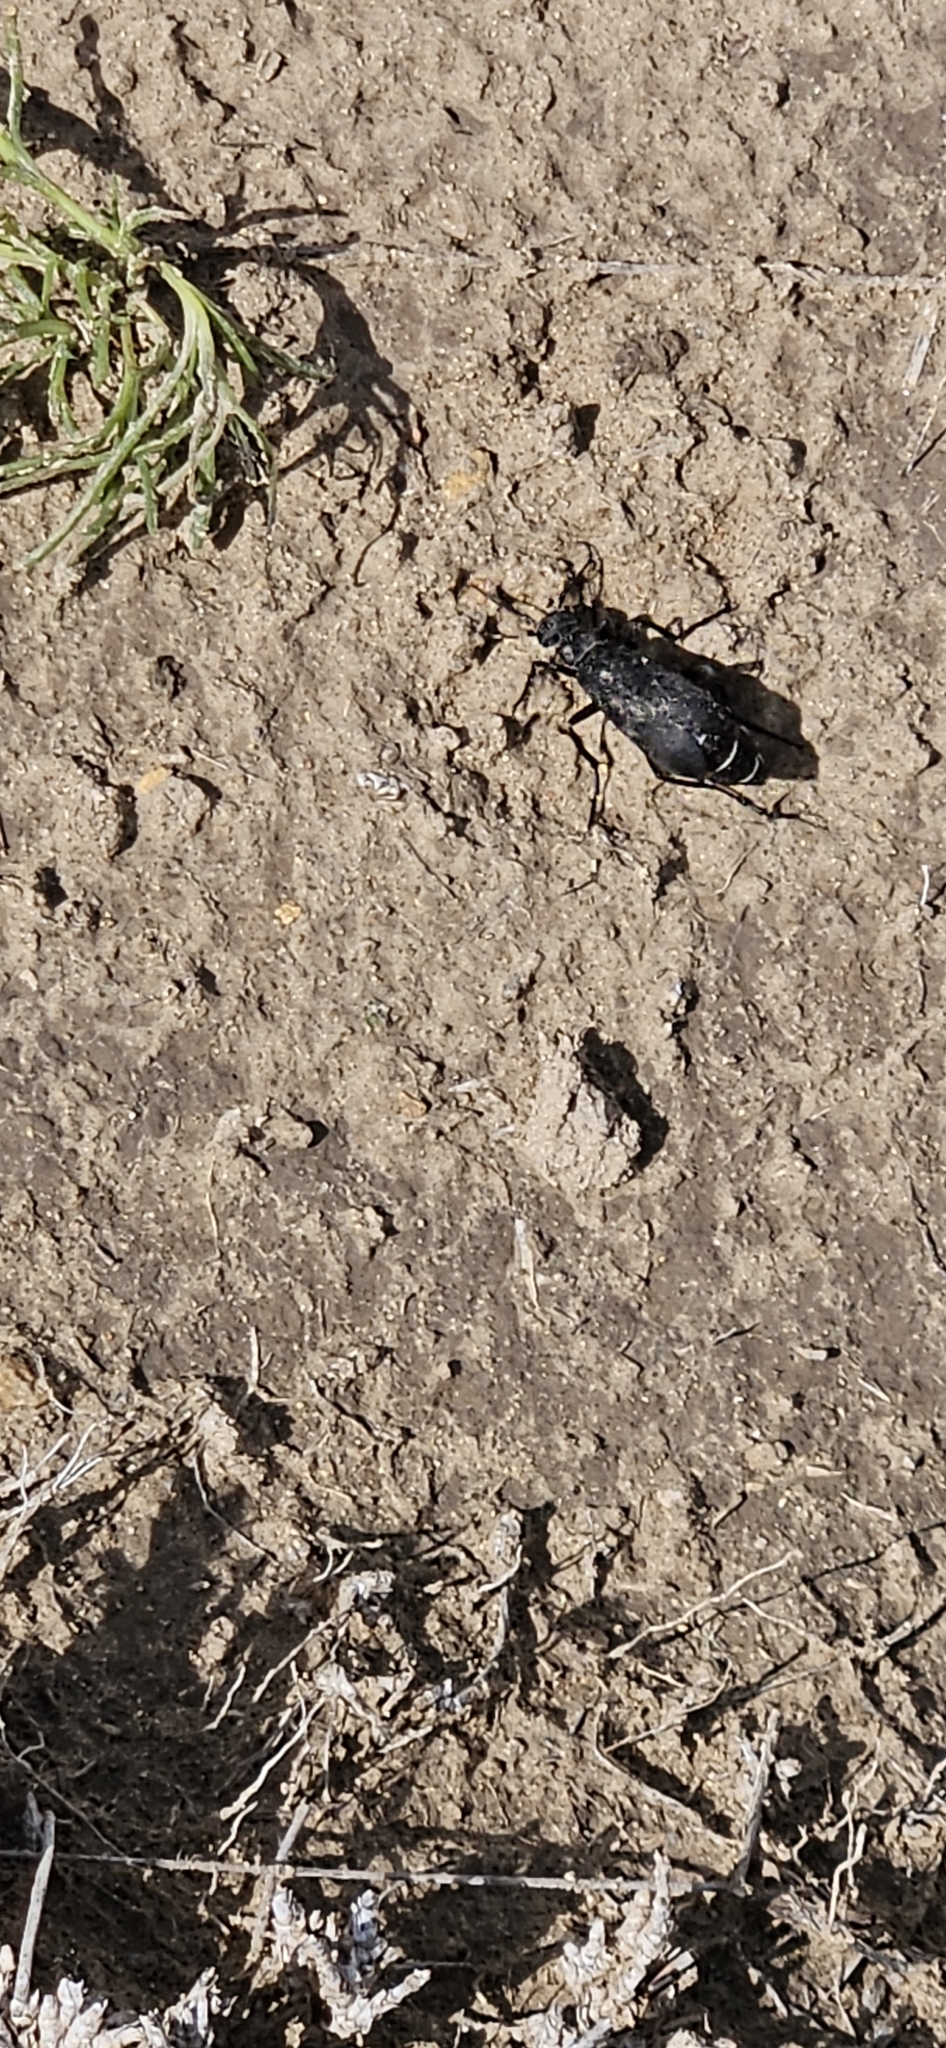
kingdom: Animalia
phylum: Arthropoda
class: Insecta
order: Coleoptera
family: Meloidae
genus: Epicauta
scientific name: Epicauta segmenta
